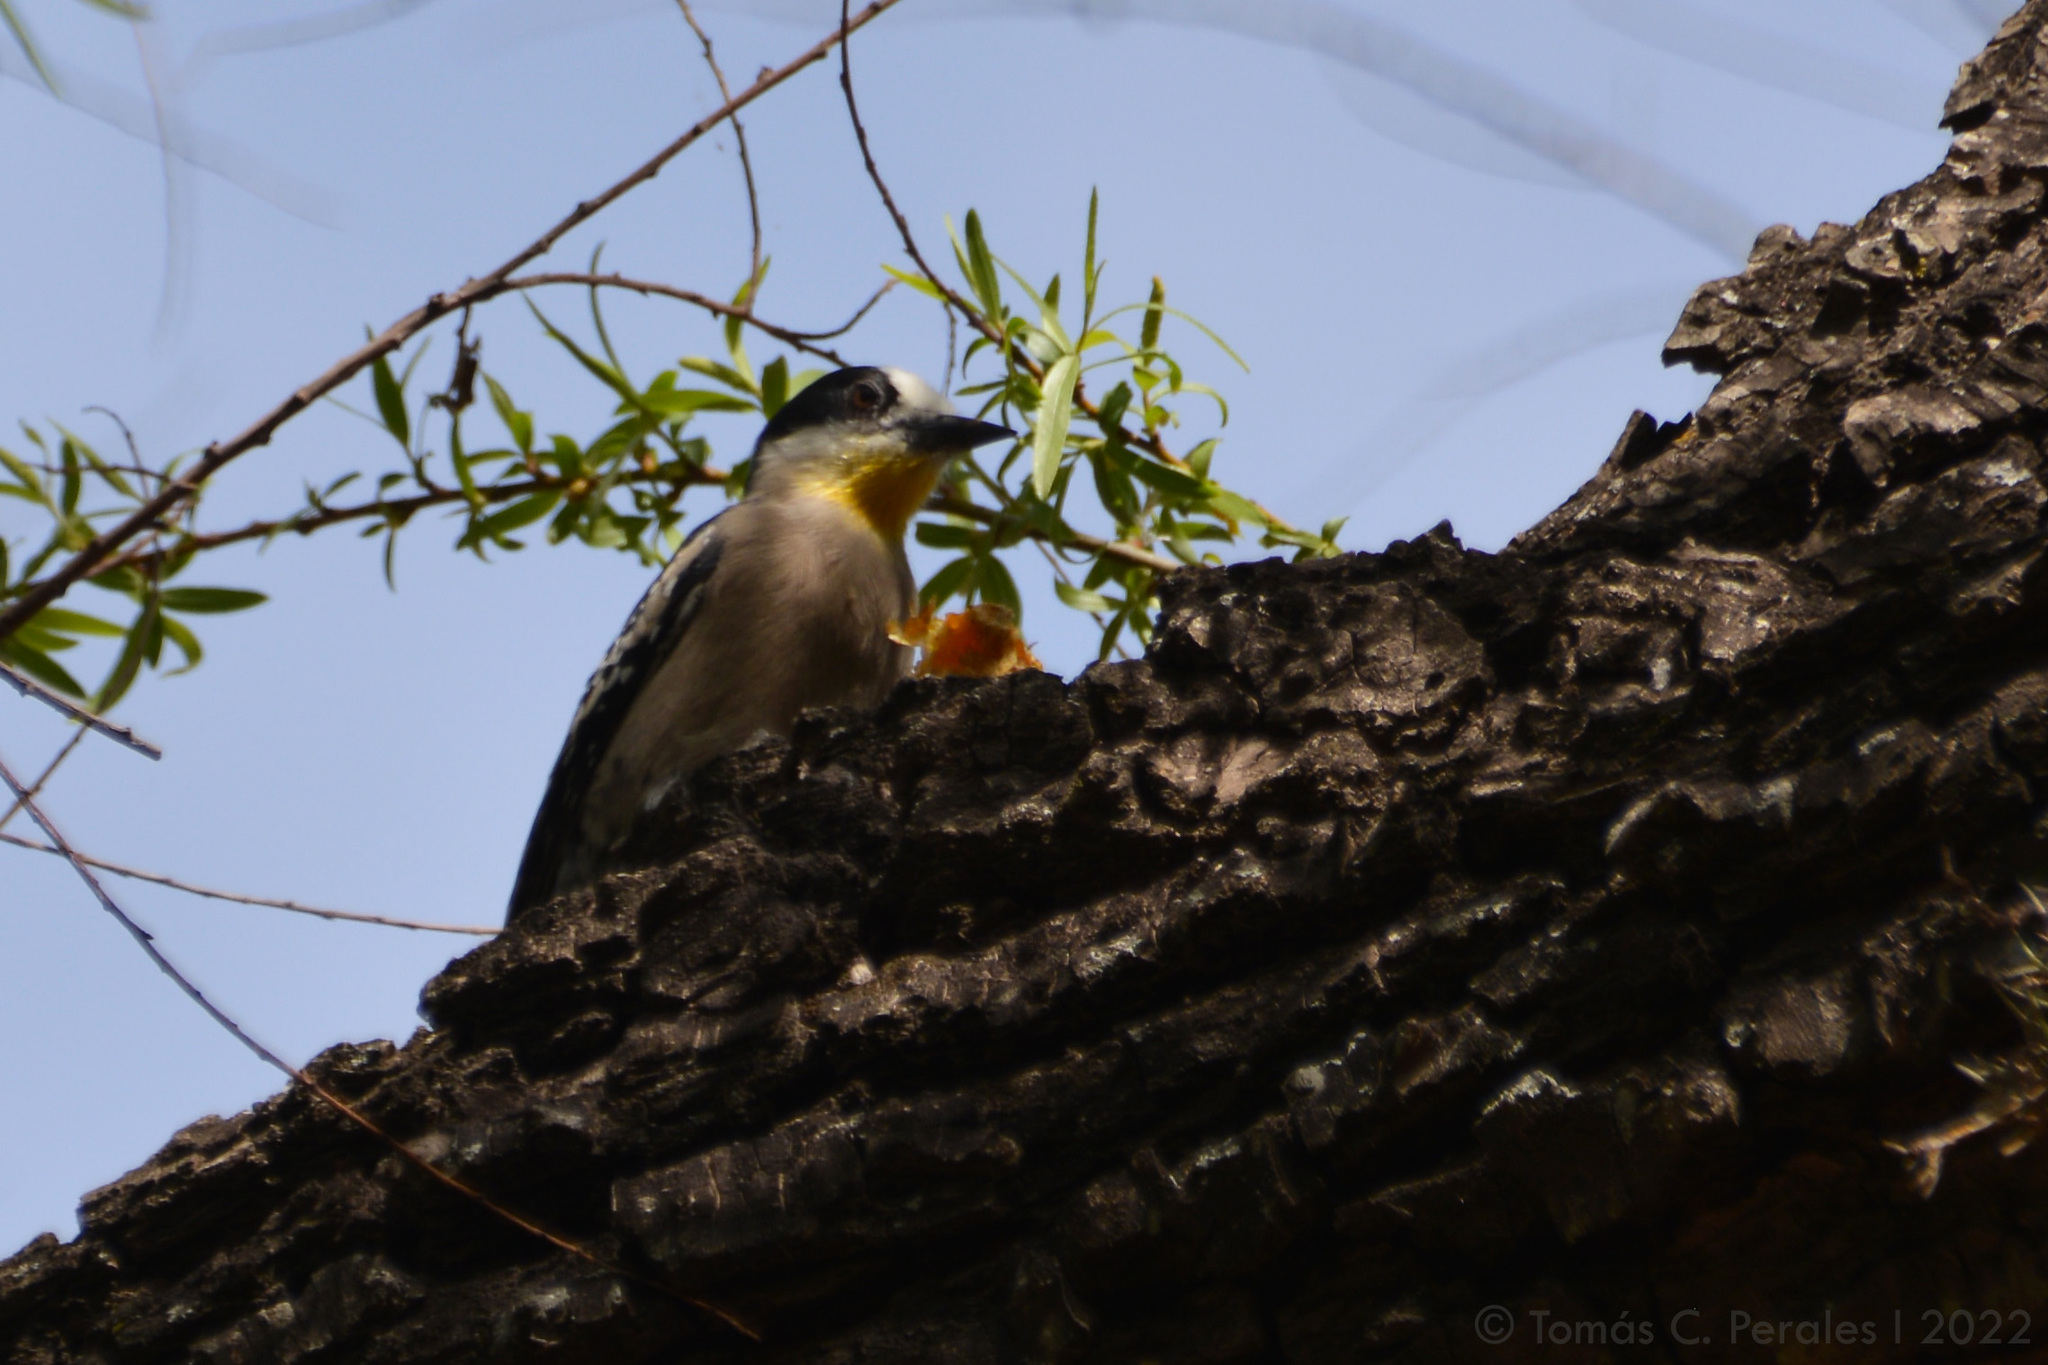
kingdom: Animalia
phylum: Chordata
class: Aves
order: Piciformes
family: Picidae
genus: Melanerpes
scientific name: Melanerpes cactorum
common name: White-fronted woodpecker
